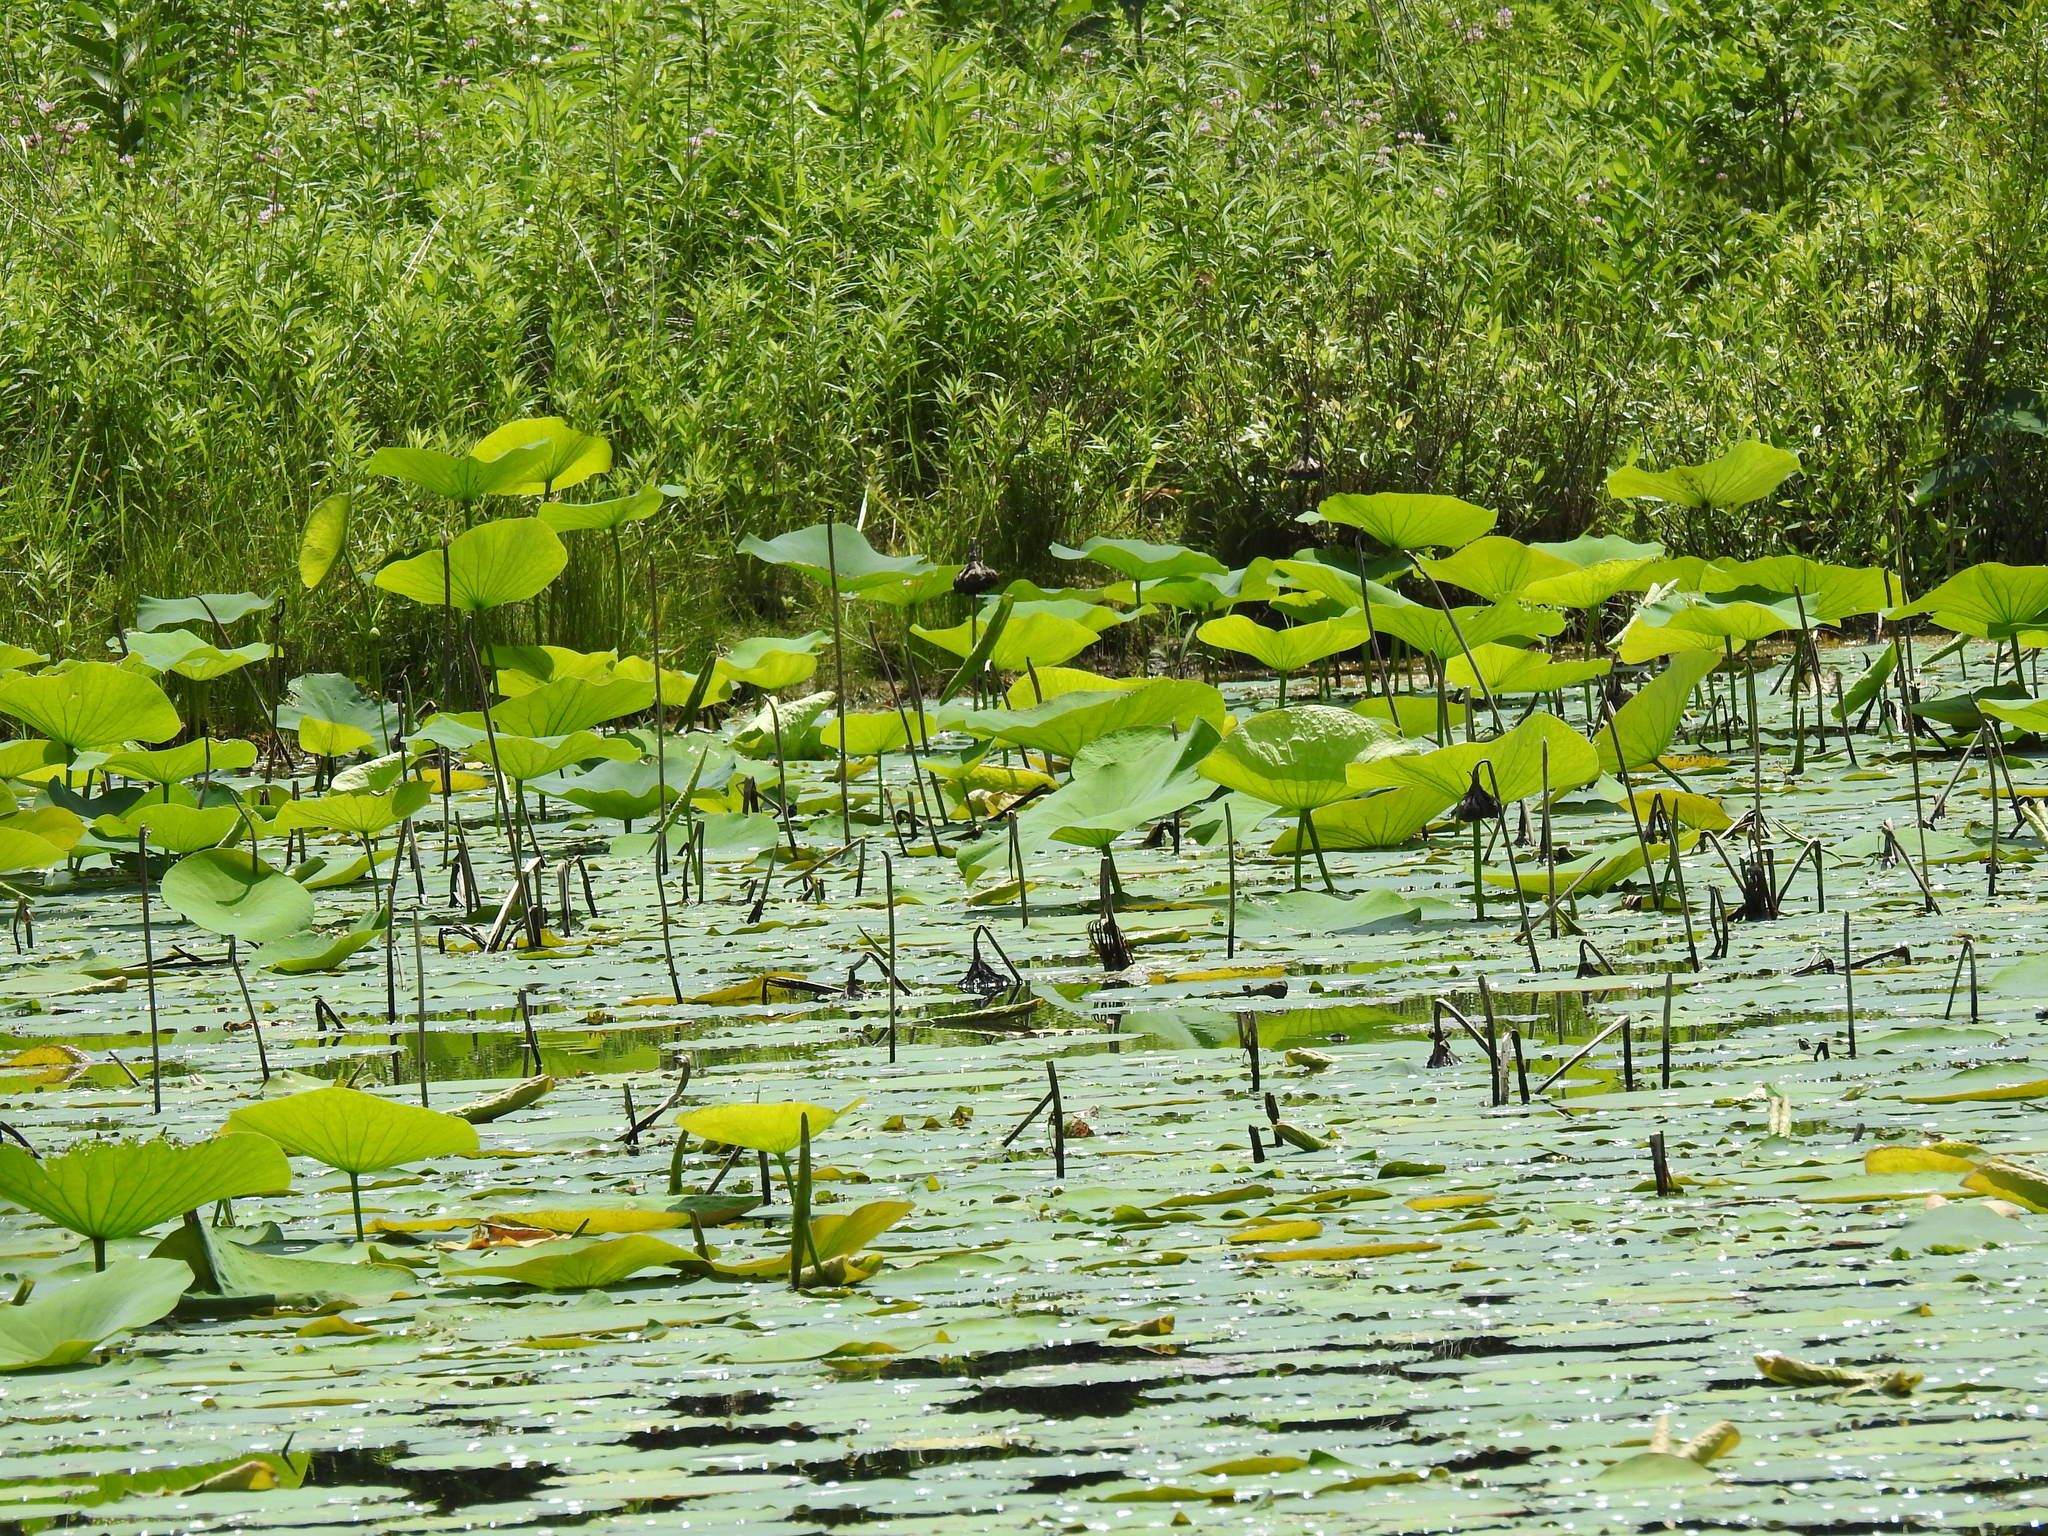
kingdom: Plantae
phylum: Tracheophyta
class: Magnoliopsida
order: Proteales
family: Nelumbonaceae
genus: Nelumbo
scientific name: Nelumbo lutea
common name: American lotus
